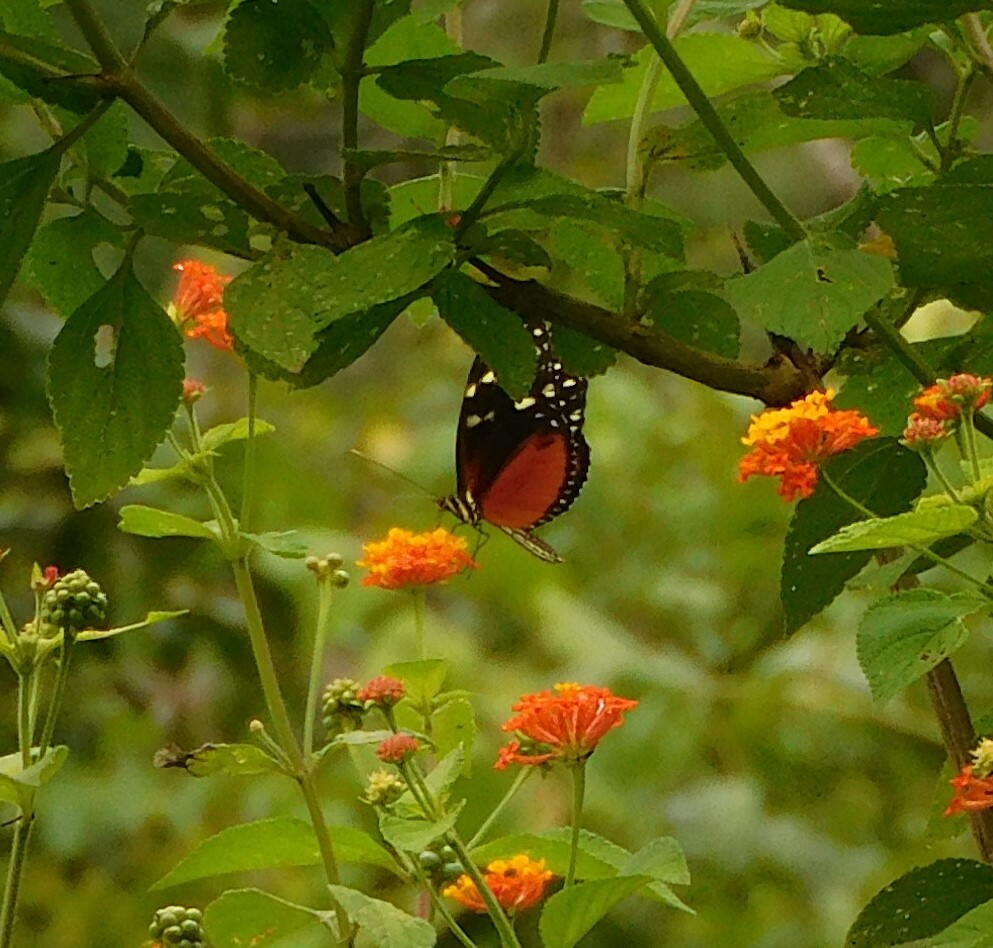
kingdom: Animalia
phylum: Arthropoda
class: Insecta
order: Lepidoptera
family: Nymphalidae
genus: Heliconius
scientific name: Heliconius hecale
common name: Tiger longwing
